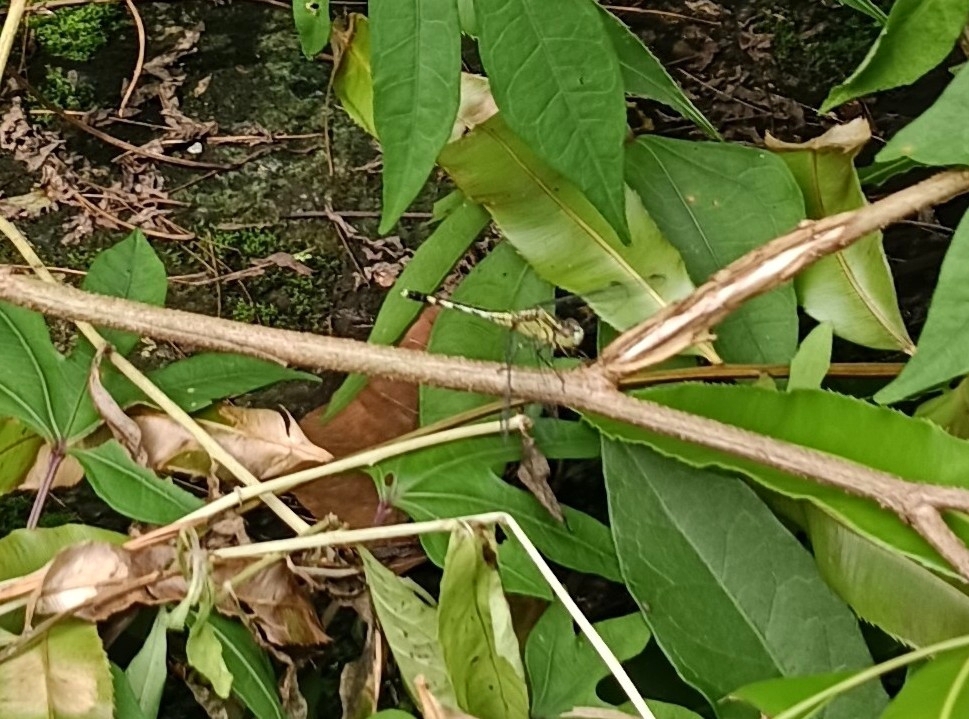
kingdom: Animalia
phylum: Arthropoda
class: Insecta
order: Odonata
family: Libellulidae
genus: Diplacodes
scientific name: Diplacodes trivialis
